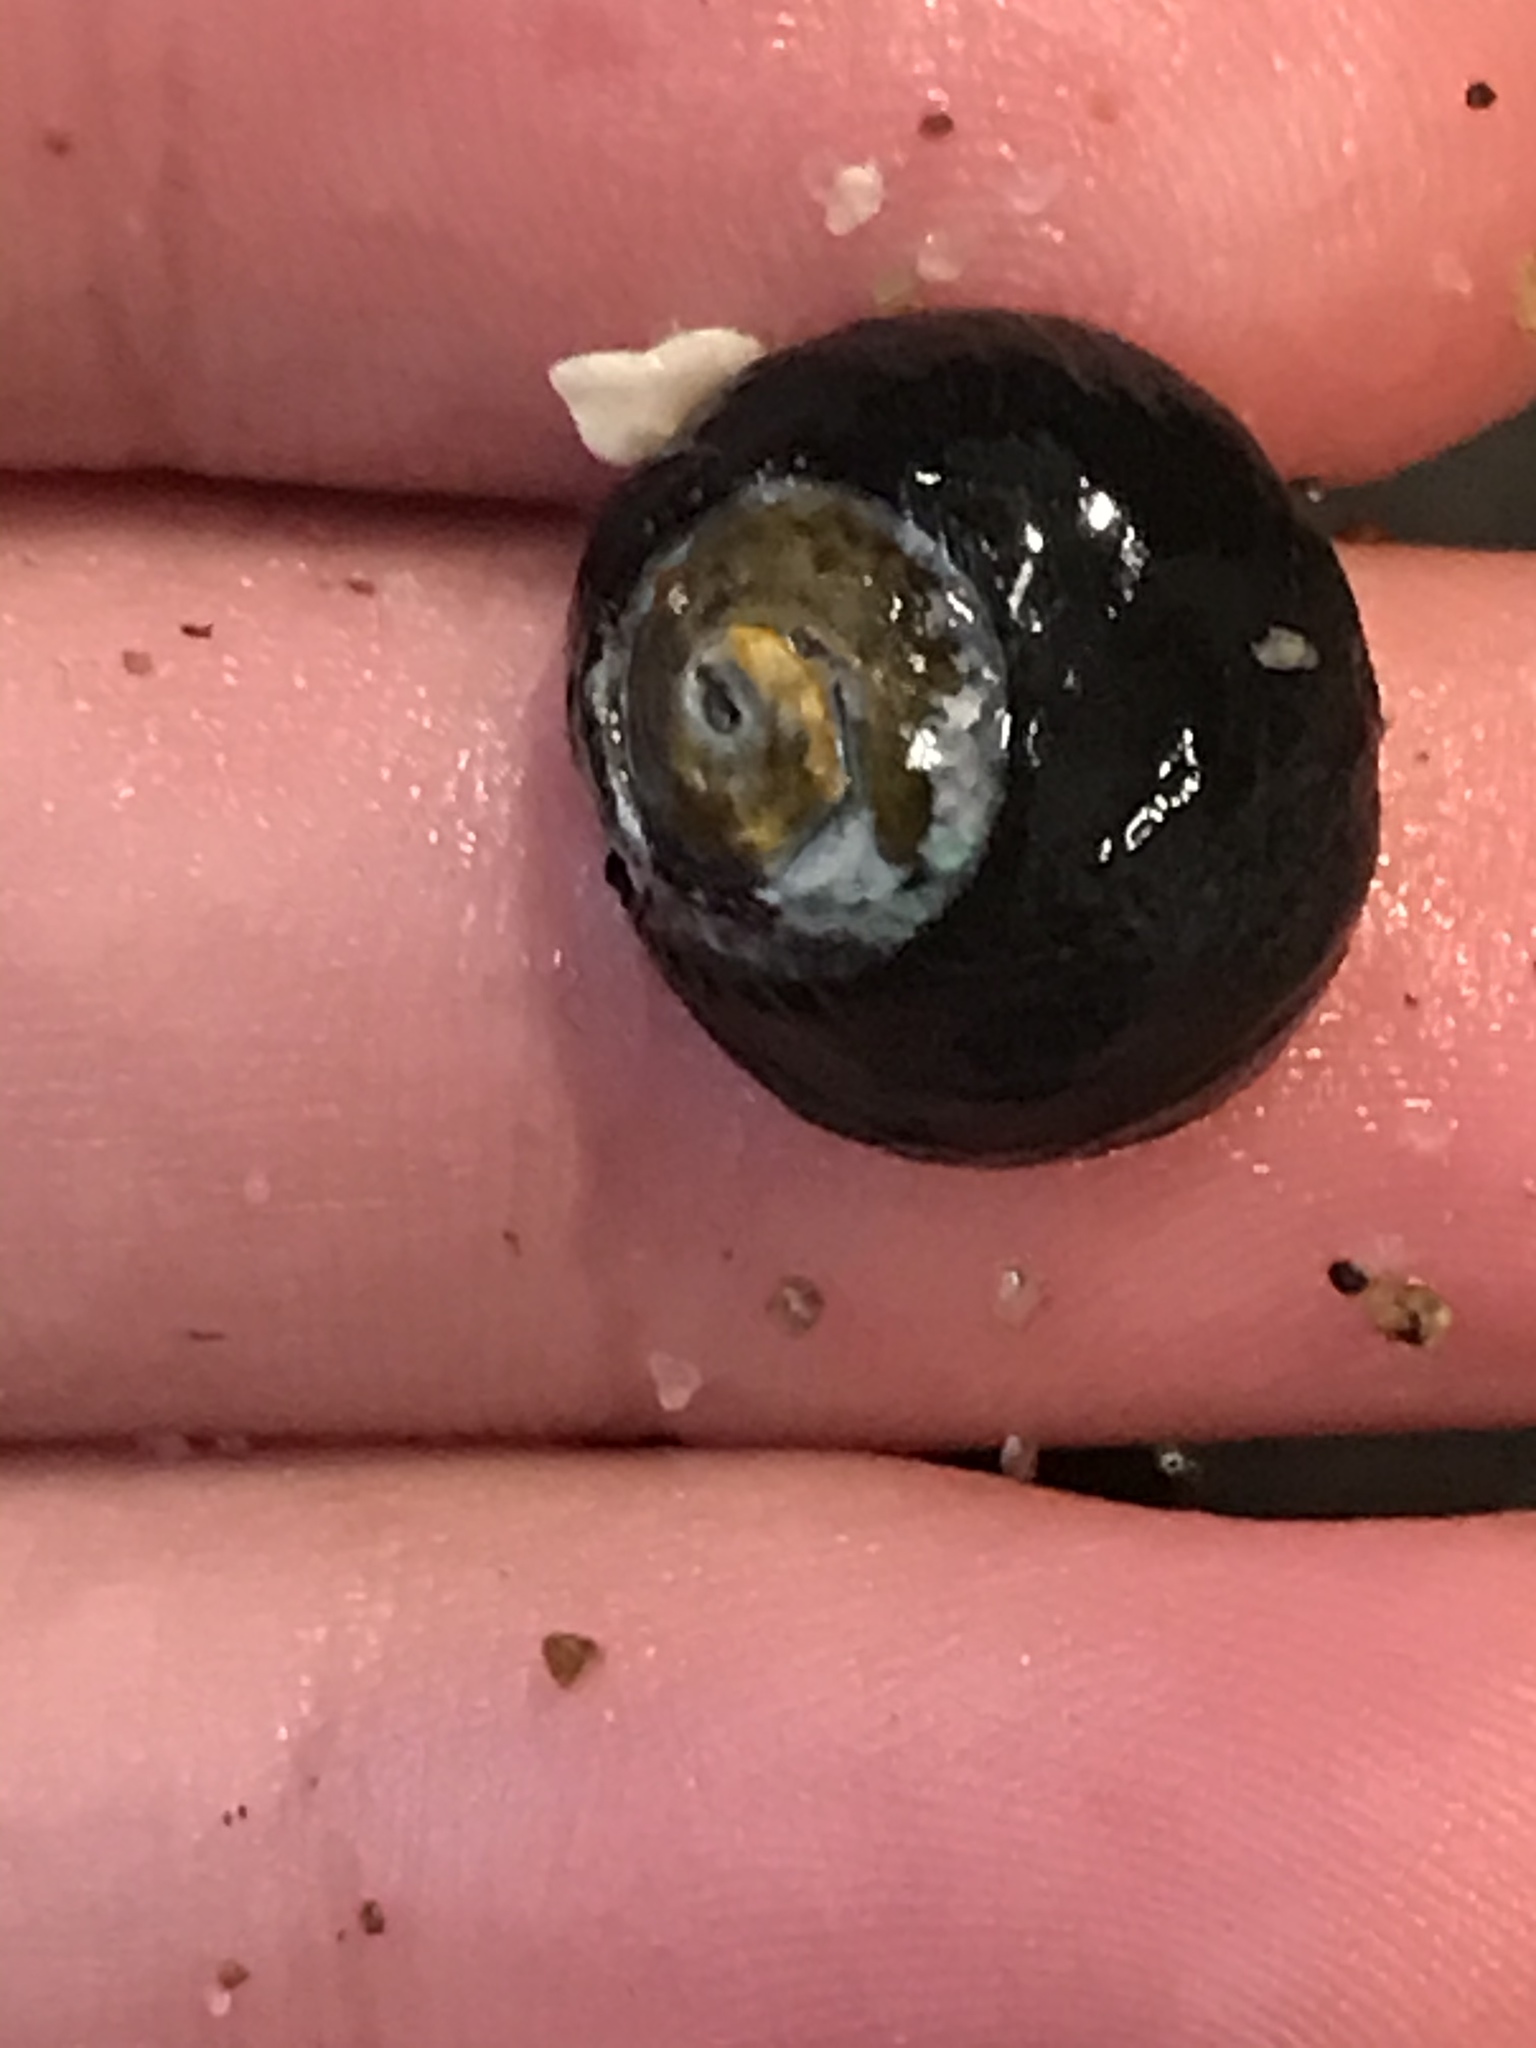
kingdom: Animalia
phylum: Mollusca
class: Gastropoda
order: Trochida
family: Tegulidae
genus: Tegula
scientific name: Tegula funebralis
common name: Black tegula
